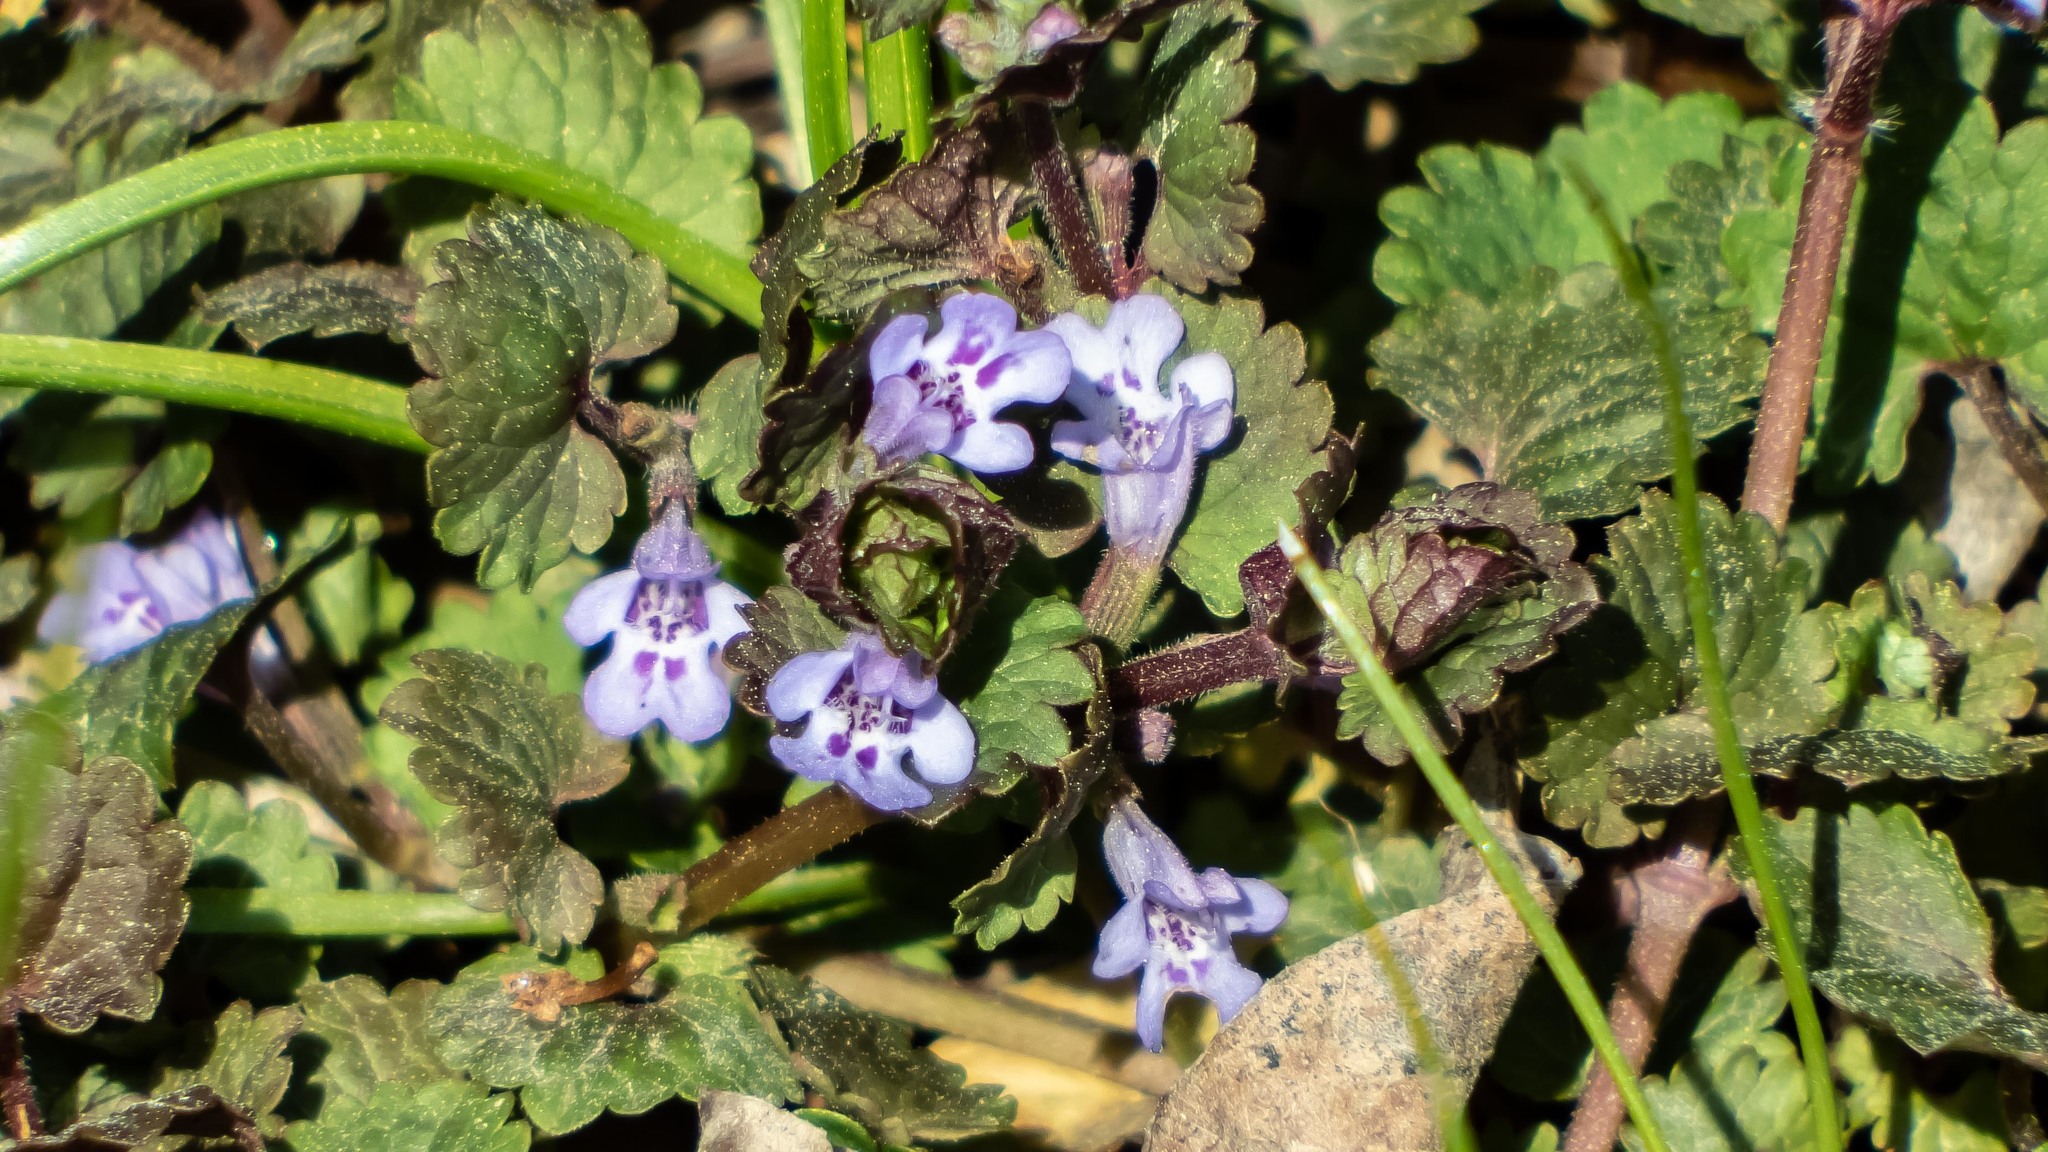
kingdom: Plantae
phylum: Tracheophyta
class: Magnoliopsida
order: Lamiales
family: Lamiaceae
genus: Glechoma
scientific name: Glechoma hederacea
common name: Ground ivy
